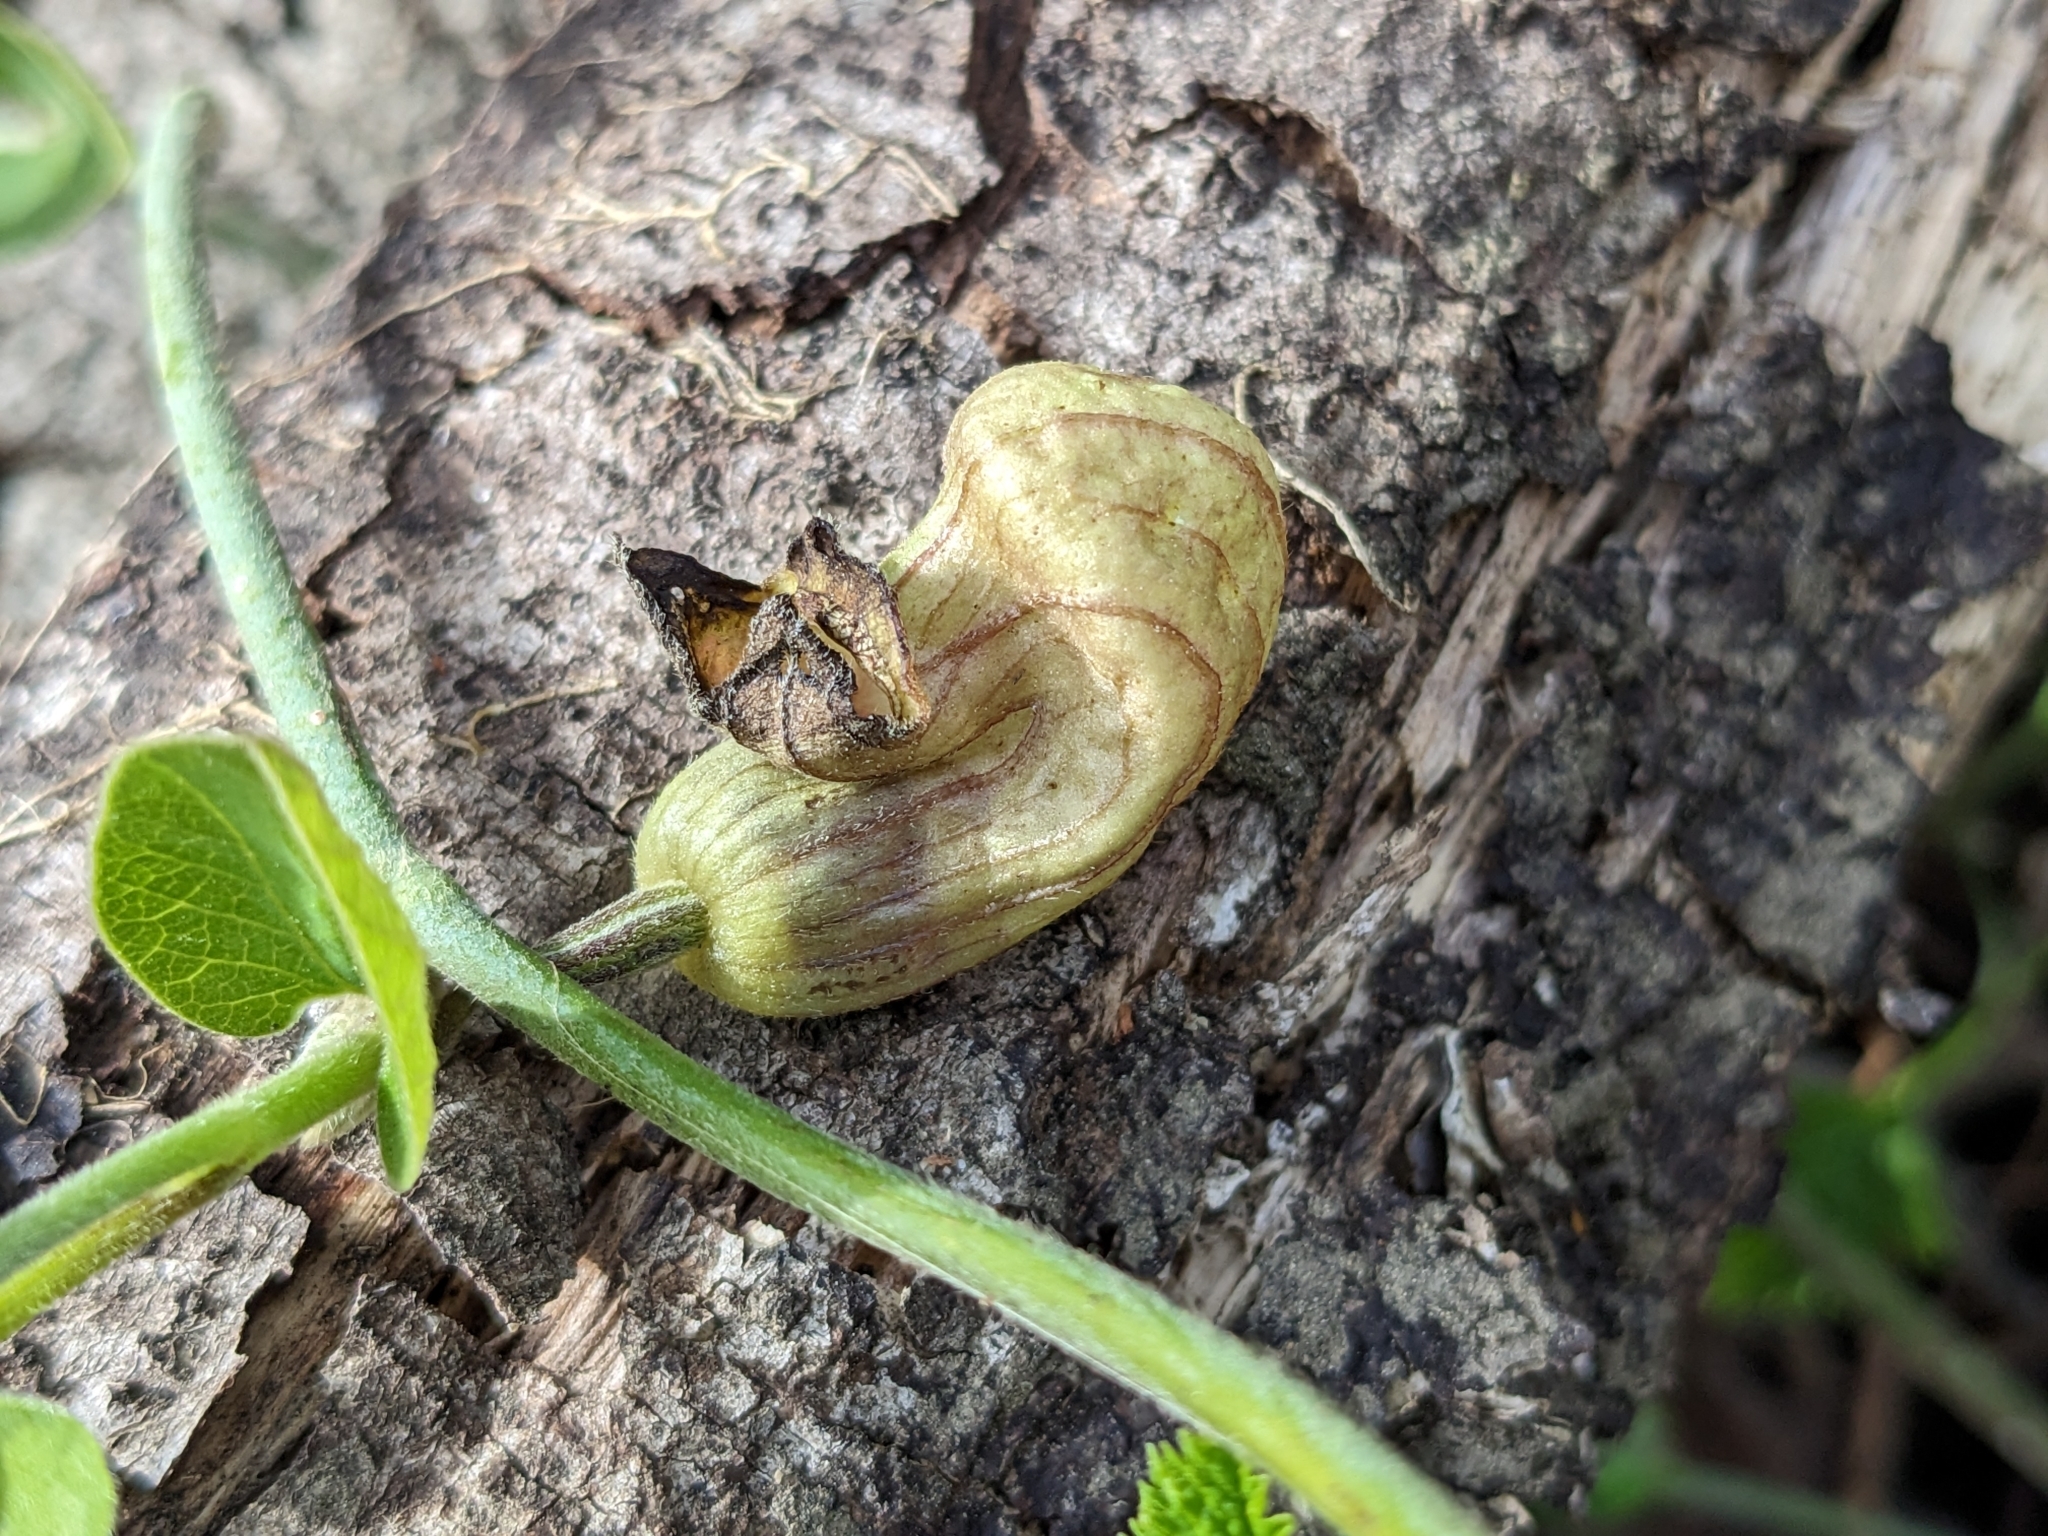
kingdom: Plantae
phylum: Tracheophyta
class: Magnoliopsida
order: Piperales
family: Aristolochiaceae
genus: Isotrema
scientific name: Isotrema californicum
